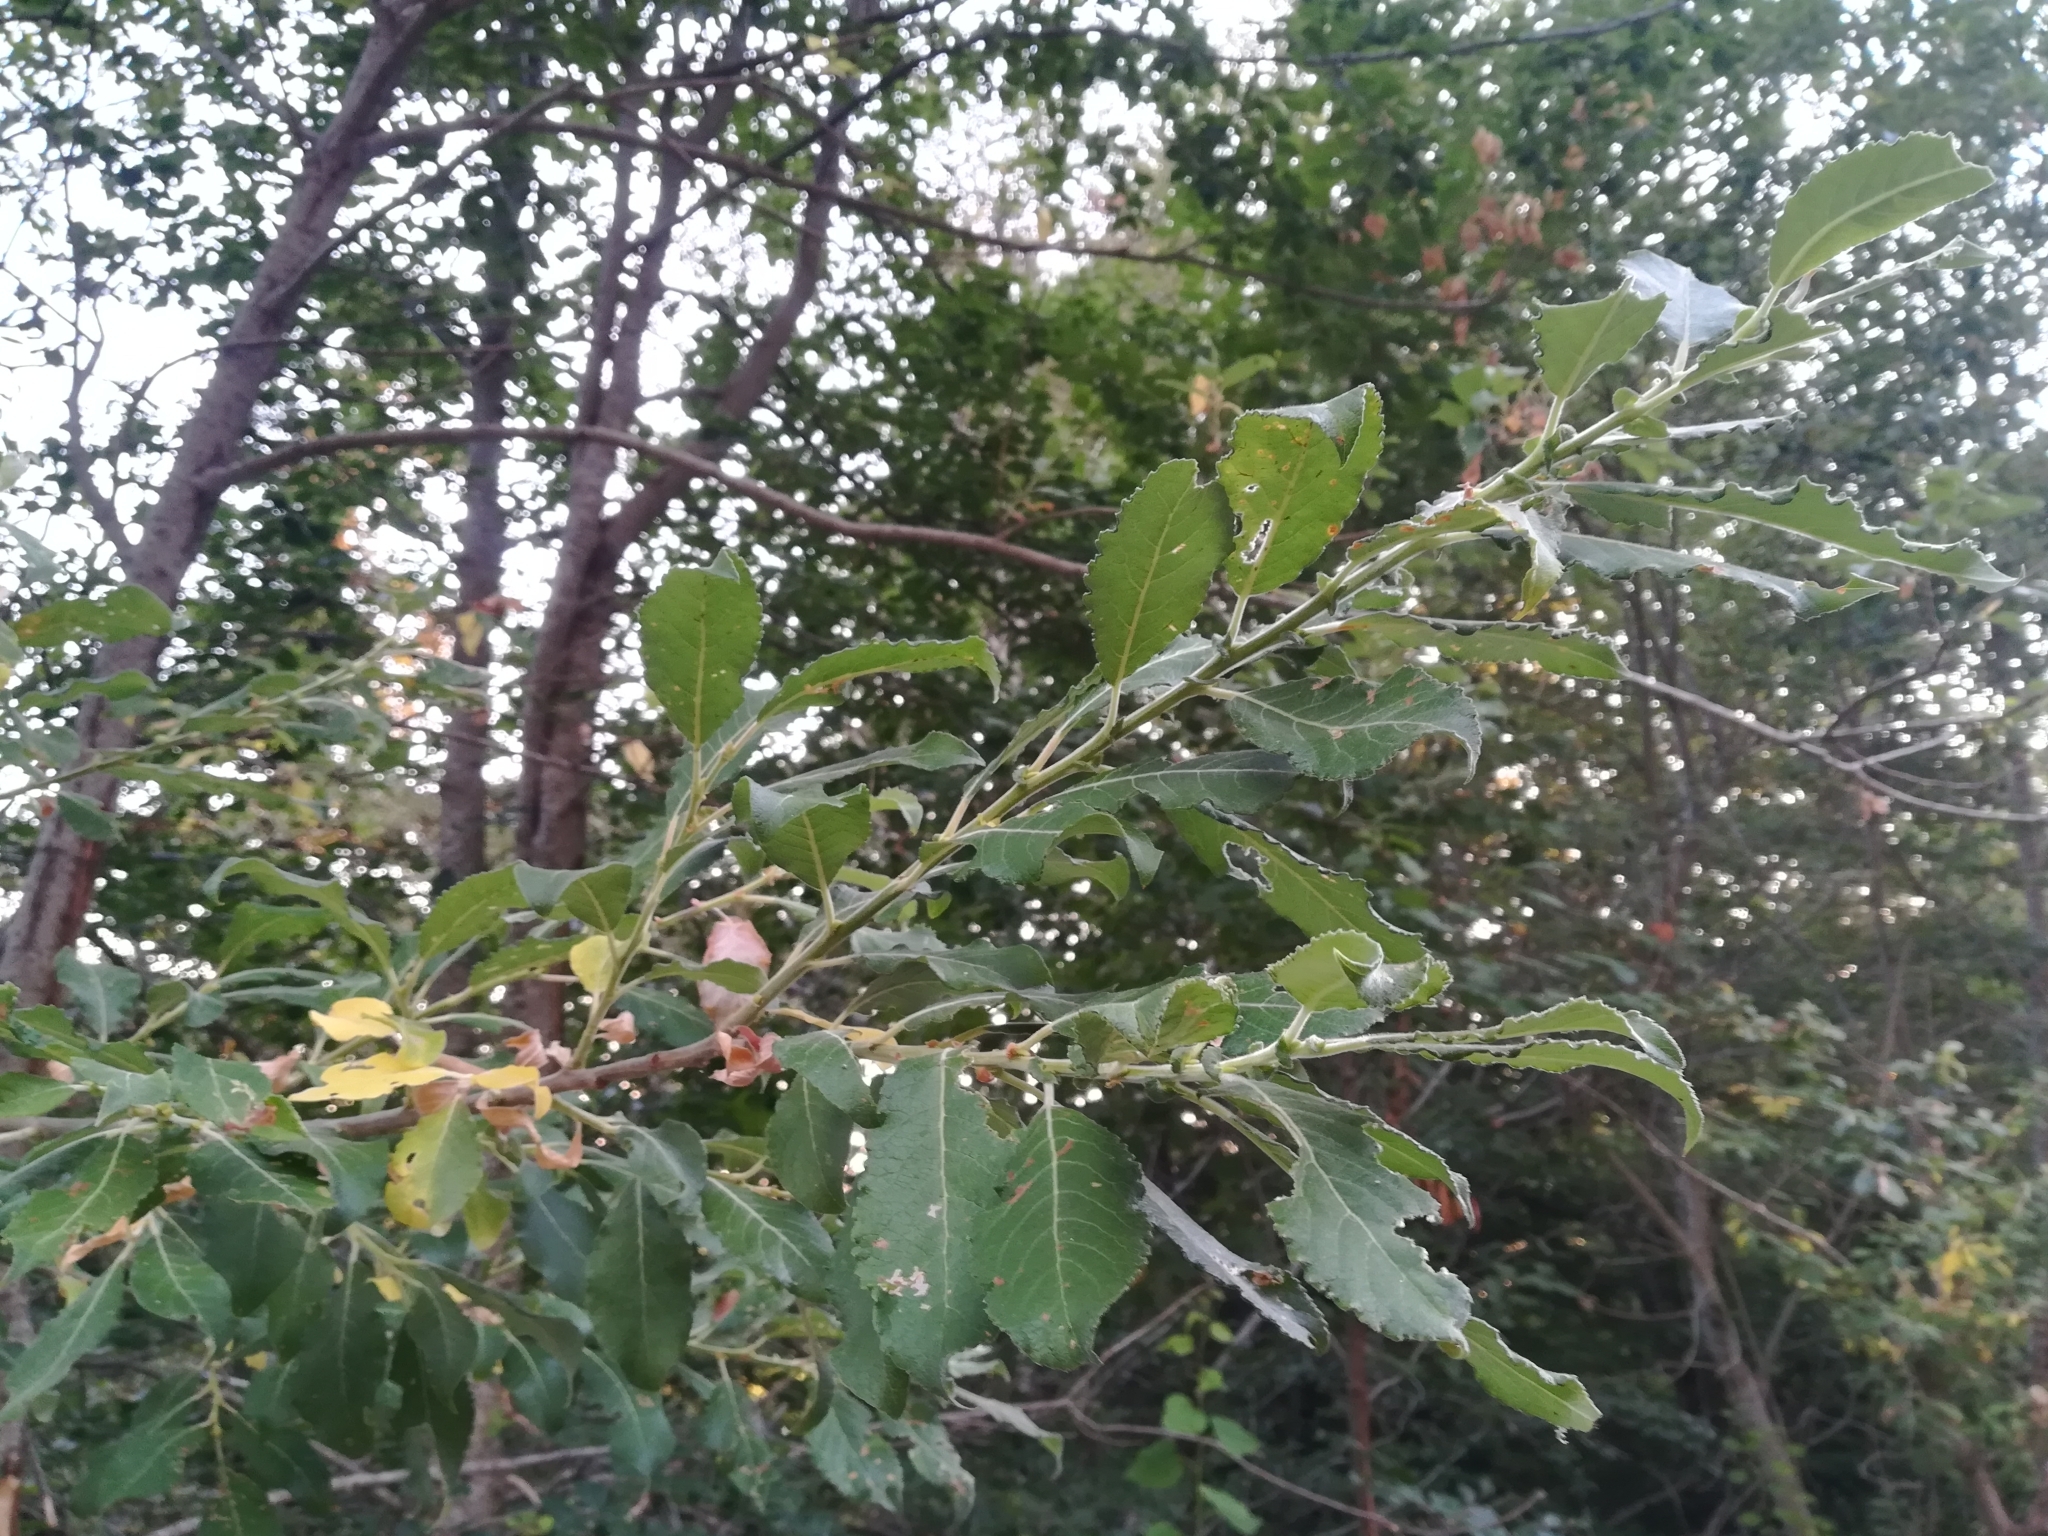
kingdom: Plantae
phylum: Tracheophyta
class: Magnoliopsida
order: Malpighiales
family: Salicaceae
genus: Salix
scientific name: Salix caprea
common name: Goat willow
